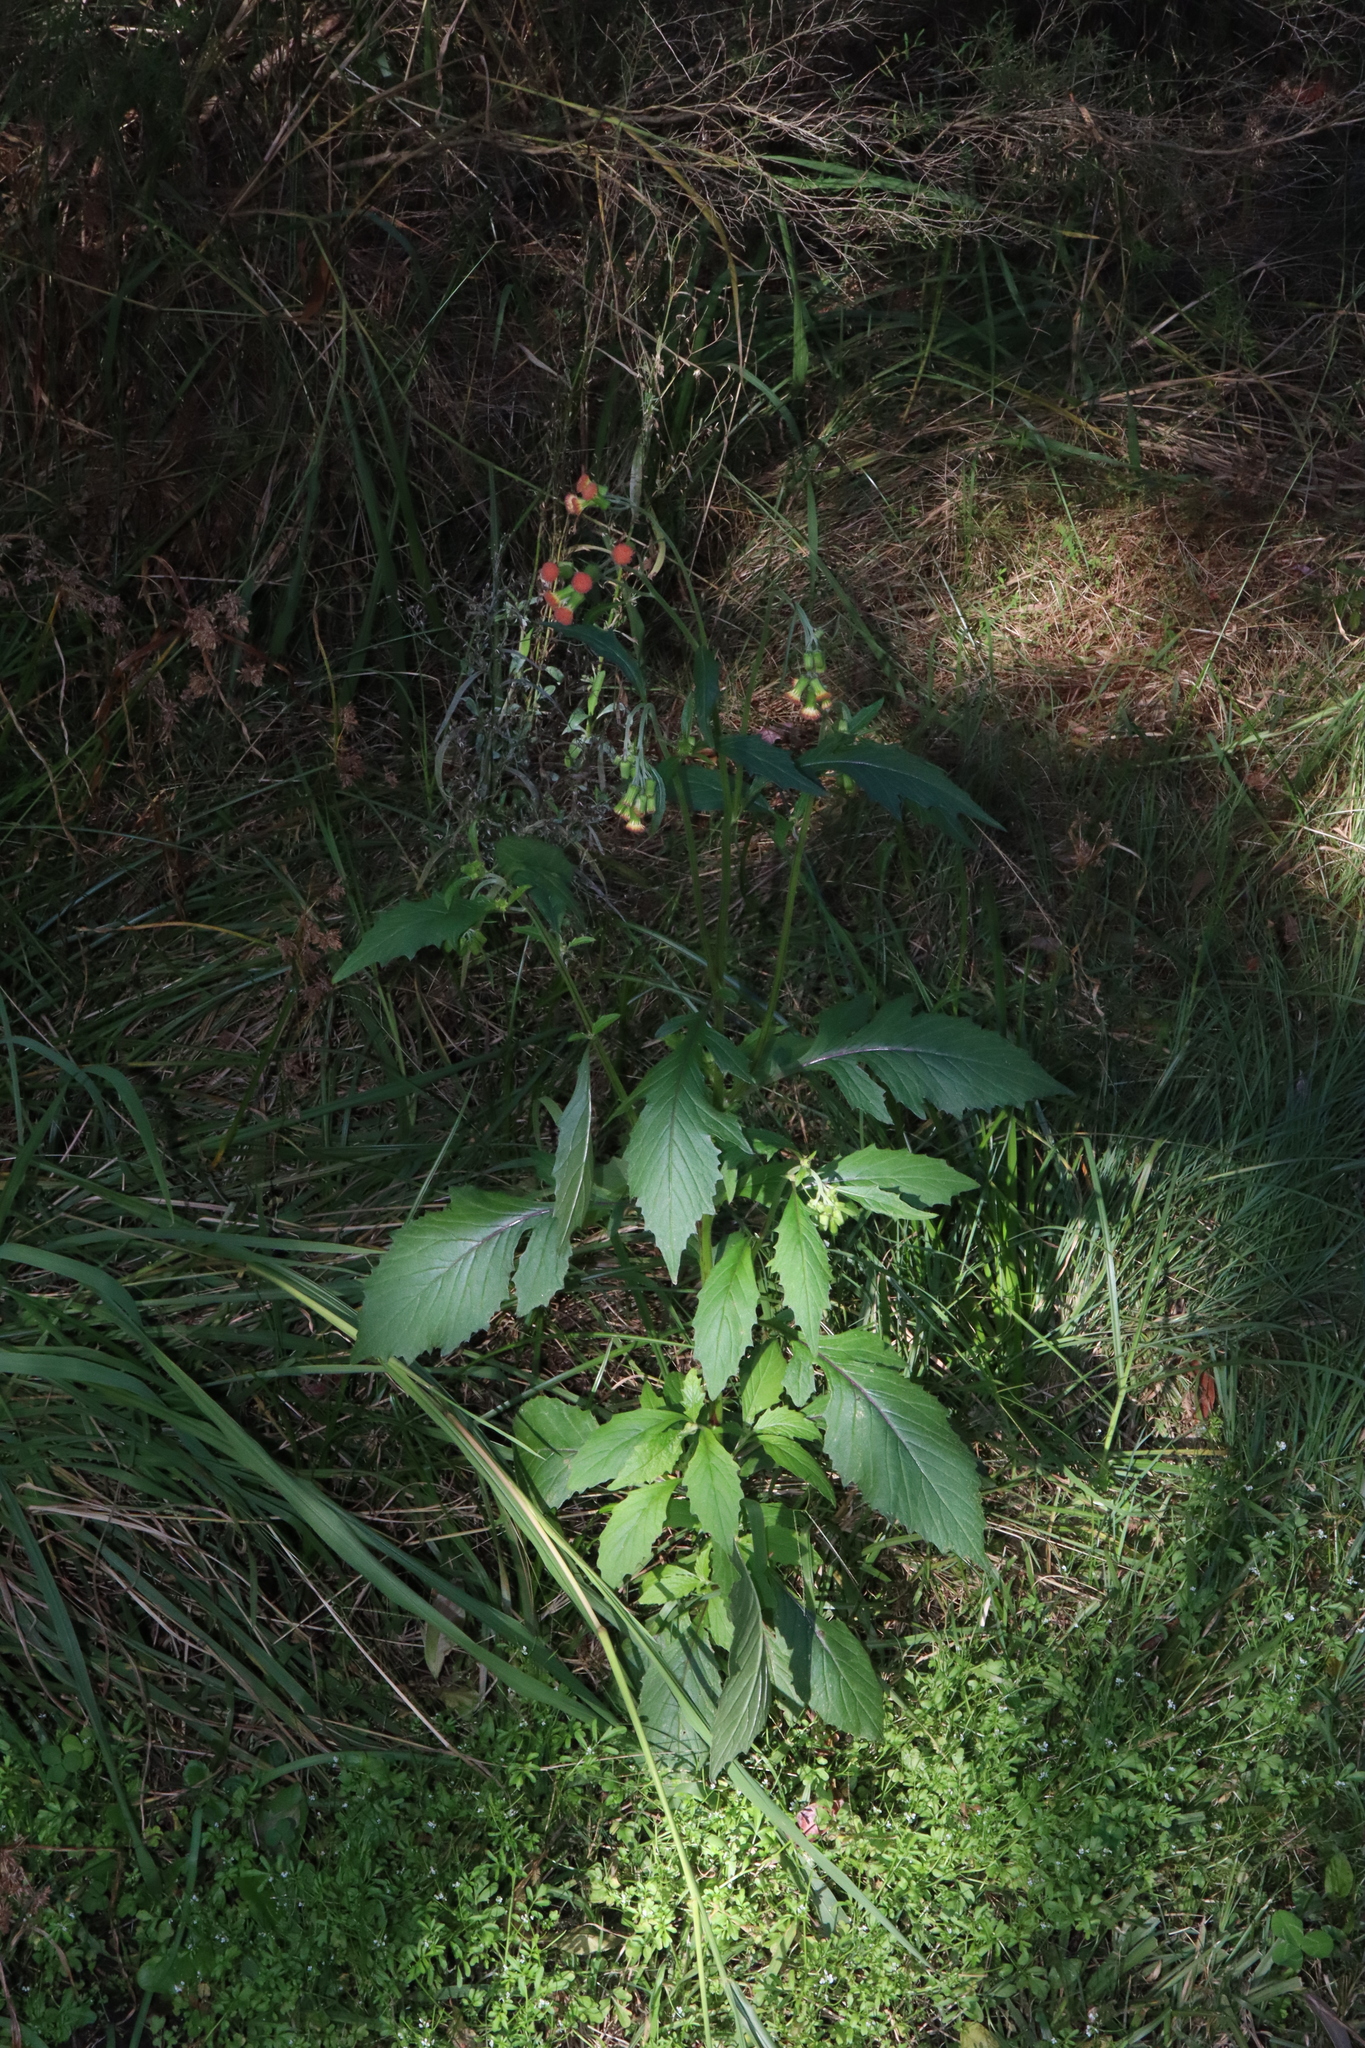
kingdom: Plantae
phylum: Tracheophyta
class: Magnoliopsida
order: Asterales
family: Asteraceae
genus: Crassocephalum
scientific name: Crassocephalum crepidioides
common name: Redflower ragleaf
